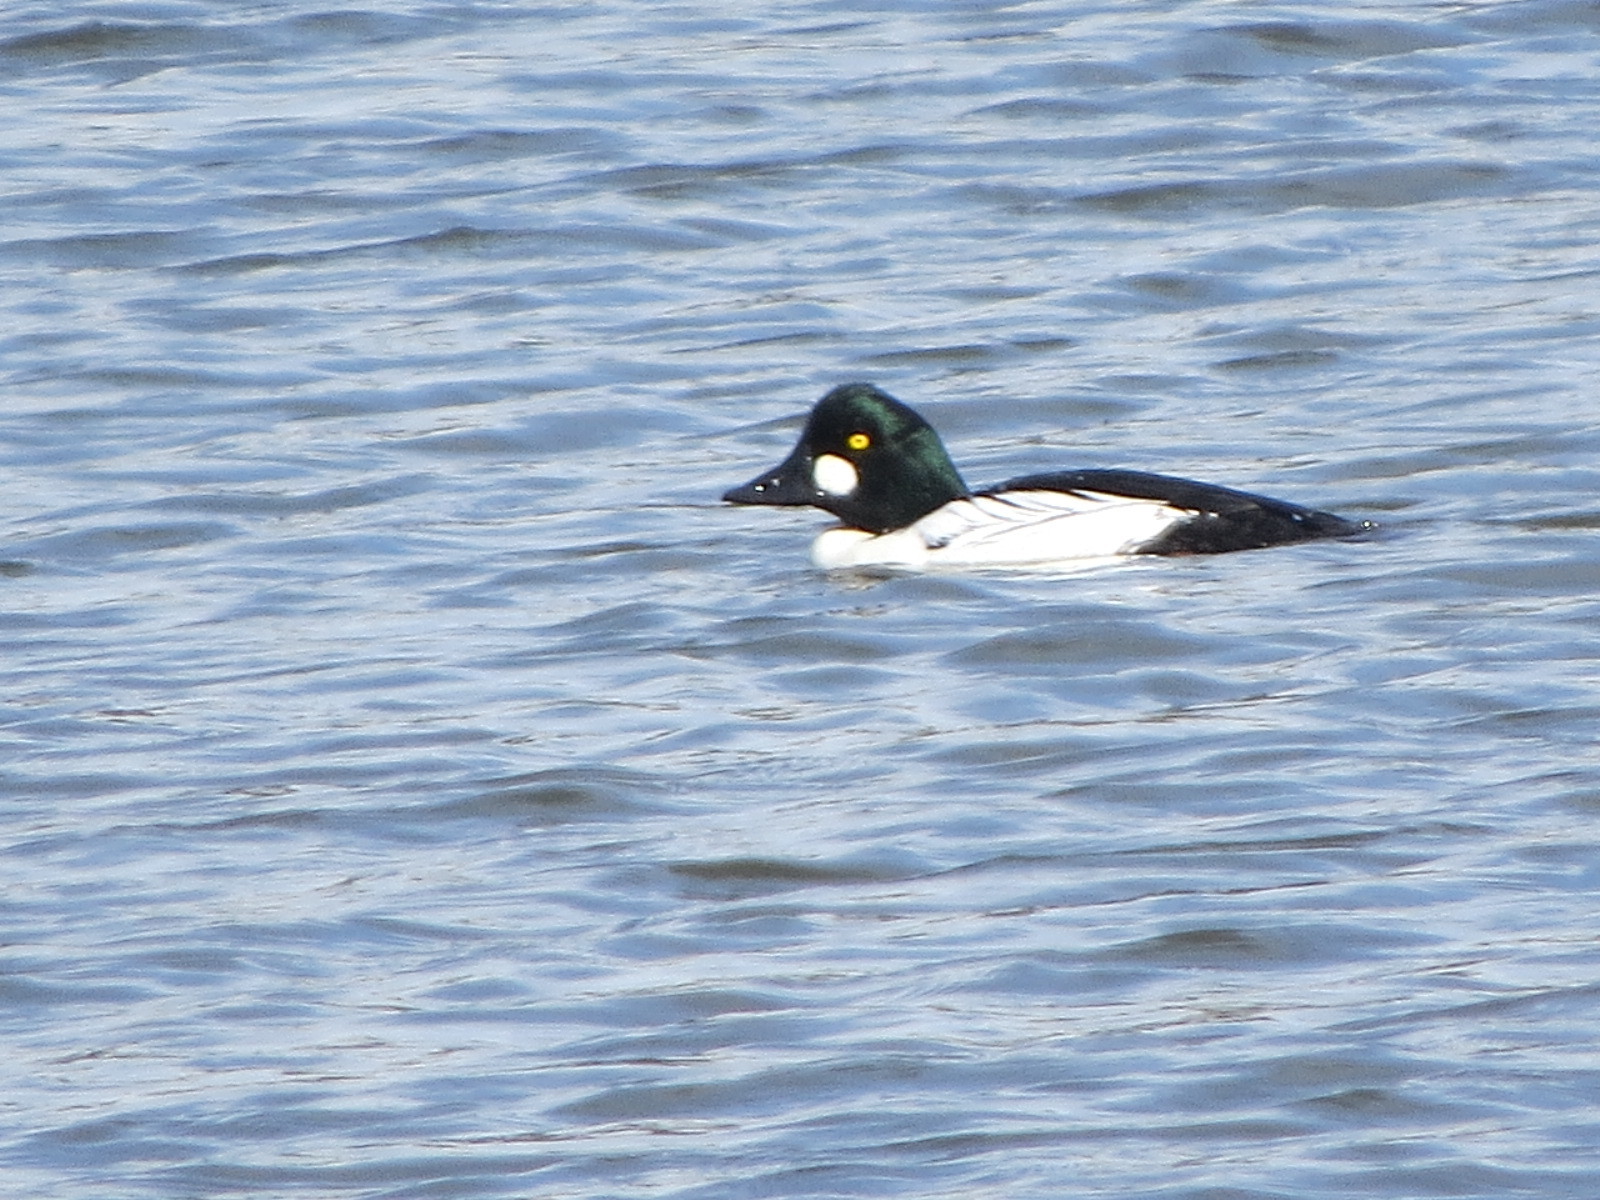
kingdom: Animalia
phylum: Chordata
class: Aves
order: Anseriformes
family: Anatidae
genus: Bucephala
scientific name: Bucephala clangula
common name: Common goldeneye
